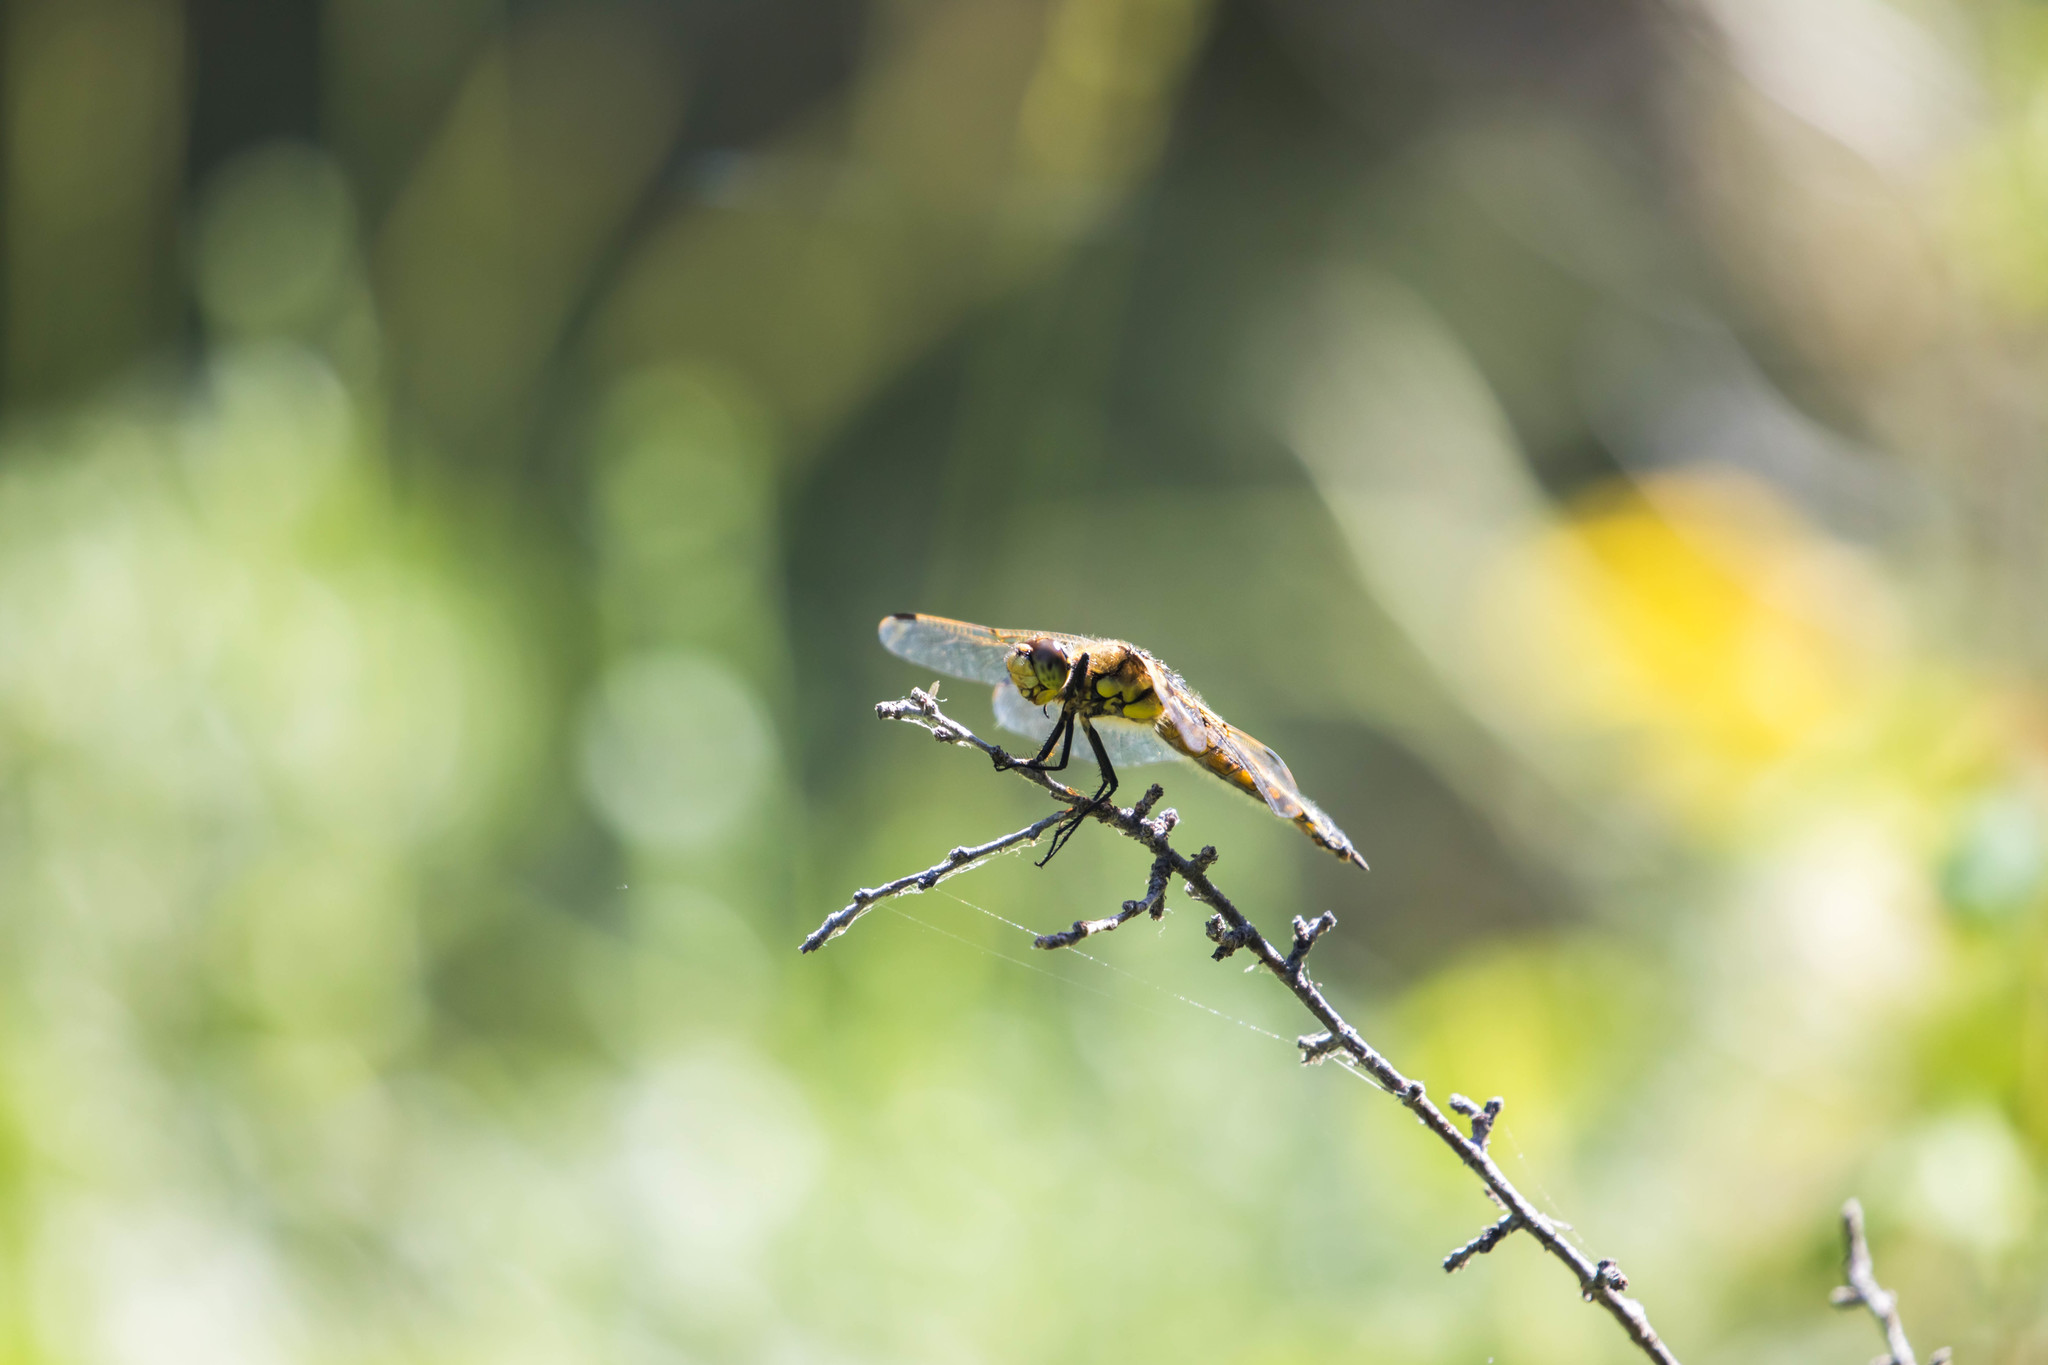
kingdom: Animalia
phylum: Arthropoda
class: Insecta
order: Odonata
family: Libellulidae
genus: Libellula
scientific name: Libellula quadrimaculata
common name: Four-spotted chaser
